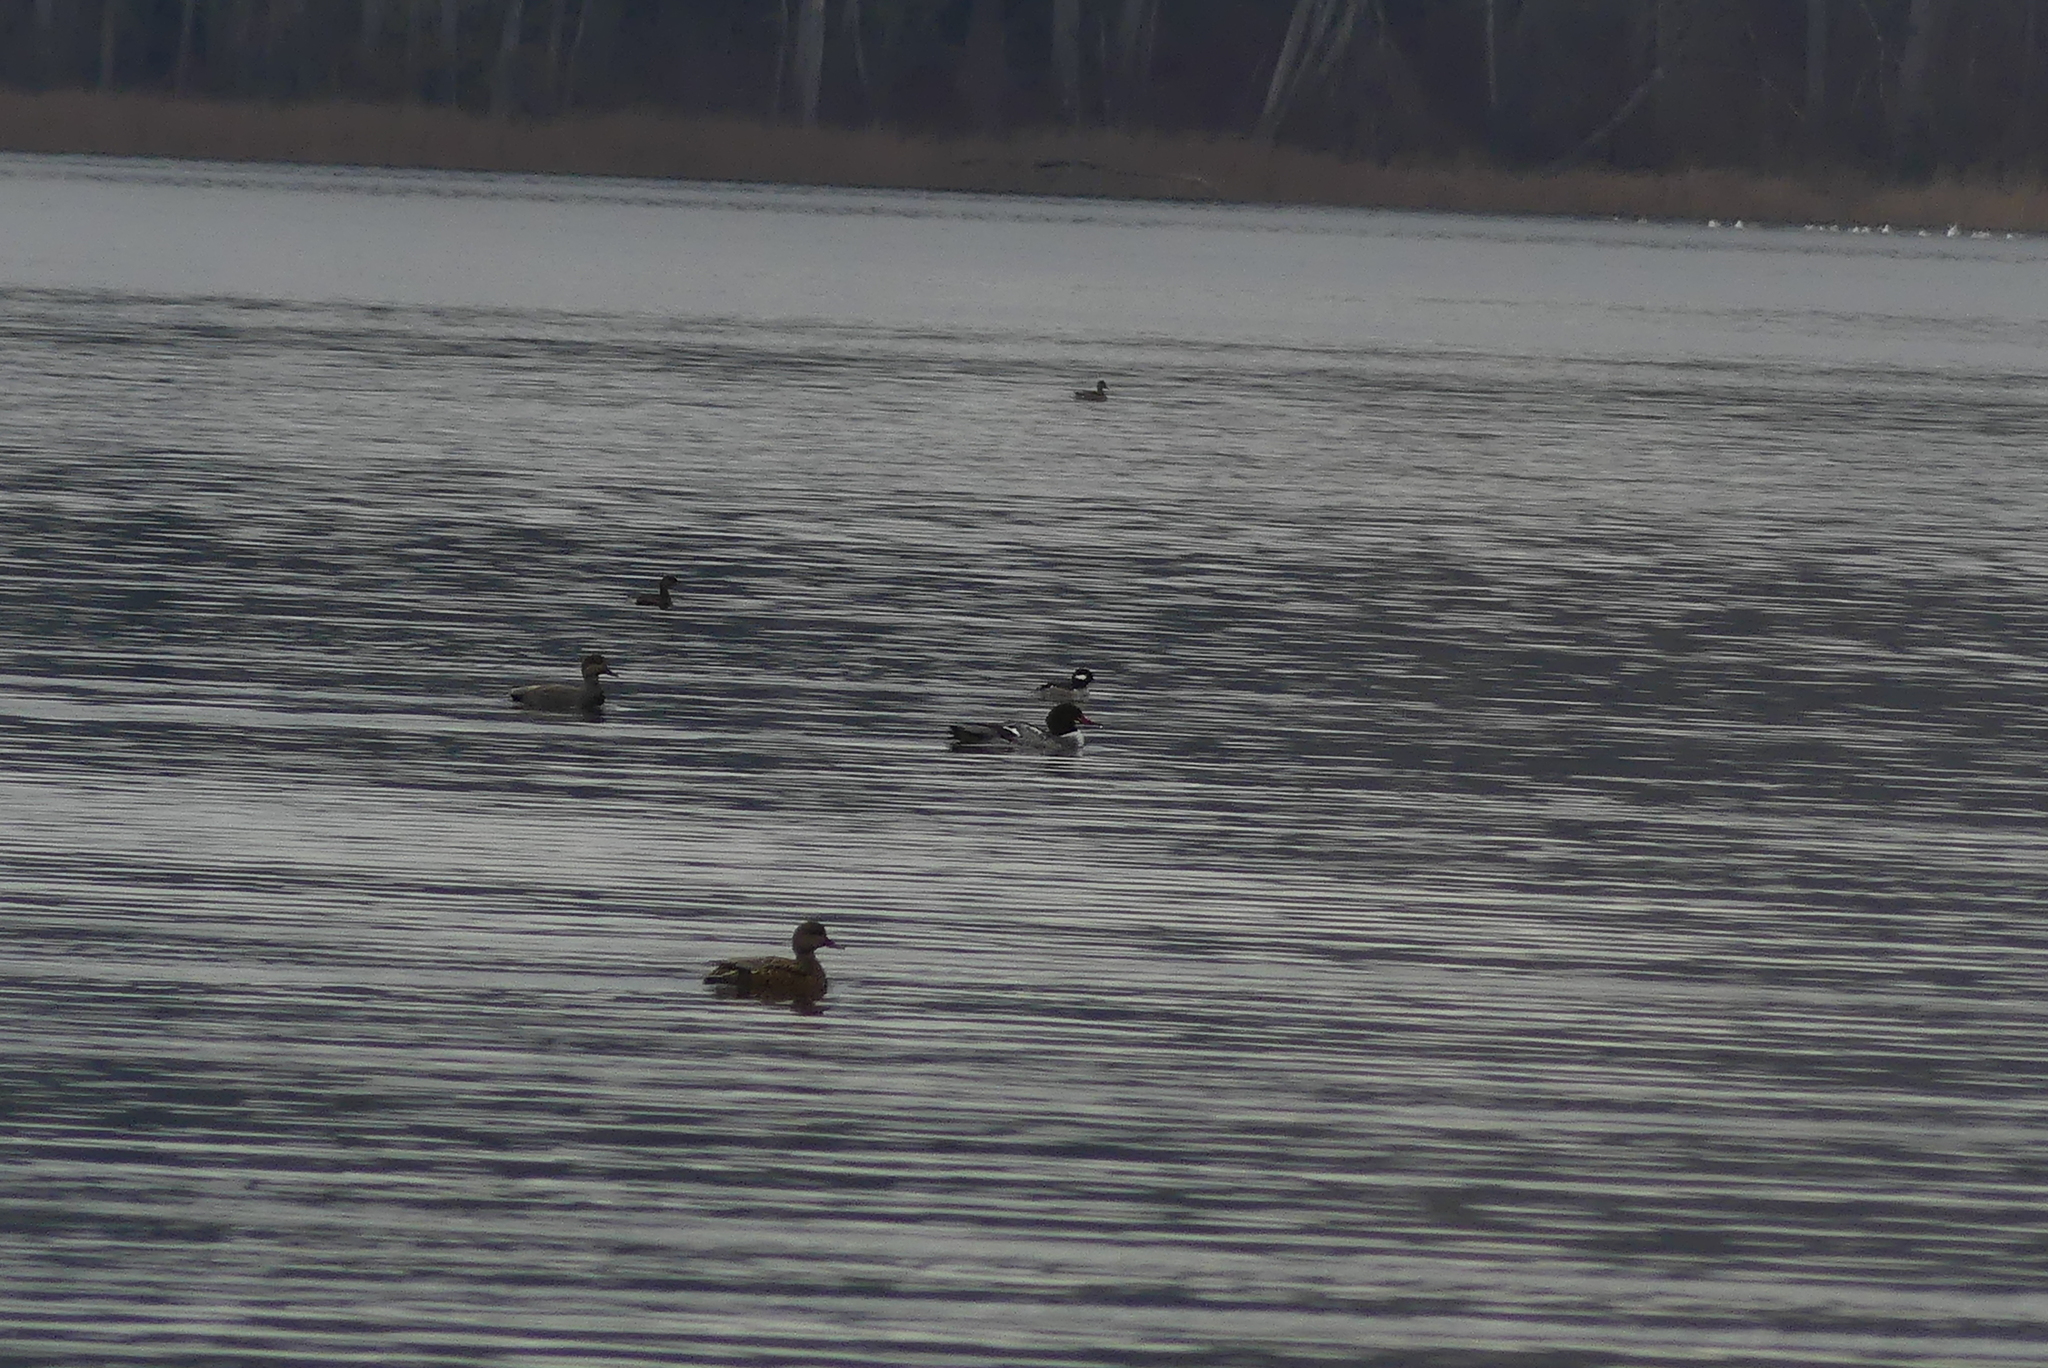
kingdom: Animalia
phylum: Chordata
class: Aves
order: Anseriformes
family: Anatidae
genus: Bucephala
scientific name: Bucephala albeola
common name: Bufflehead
